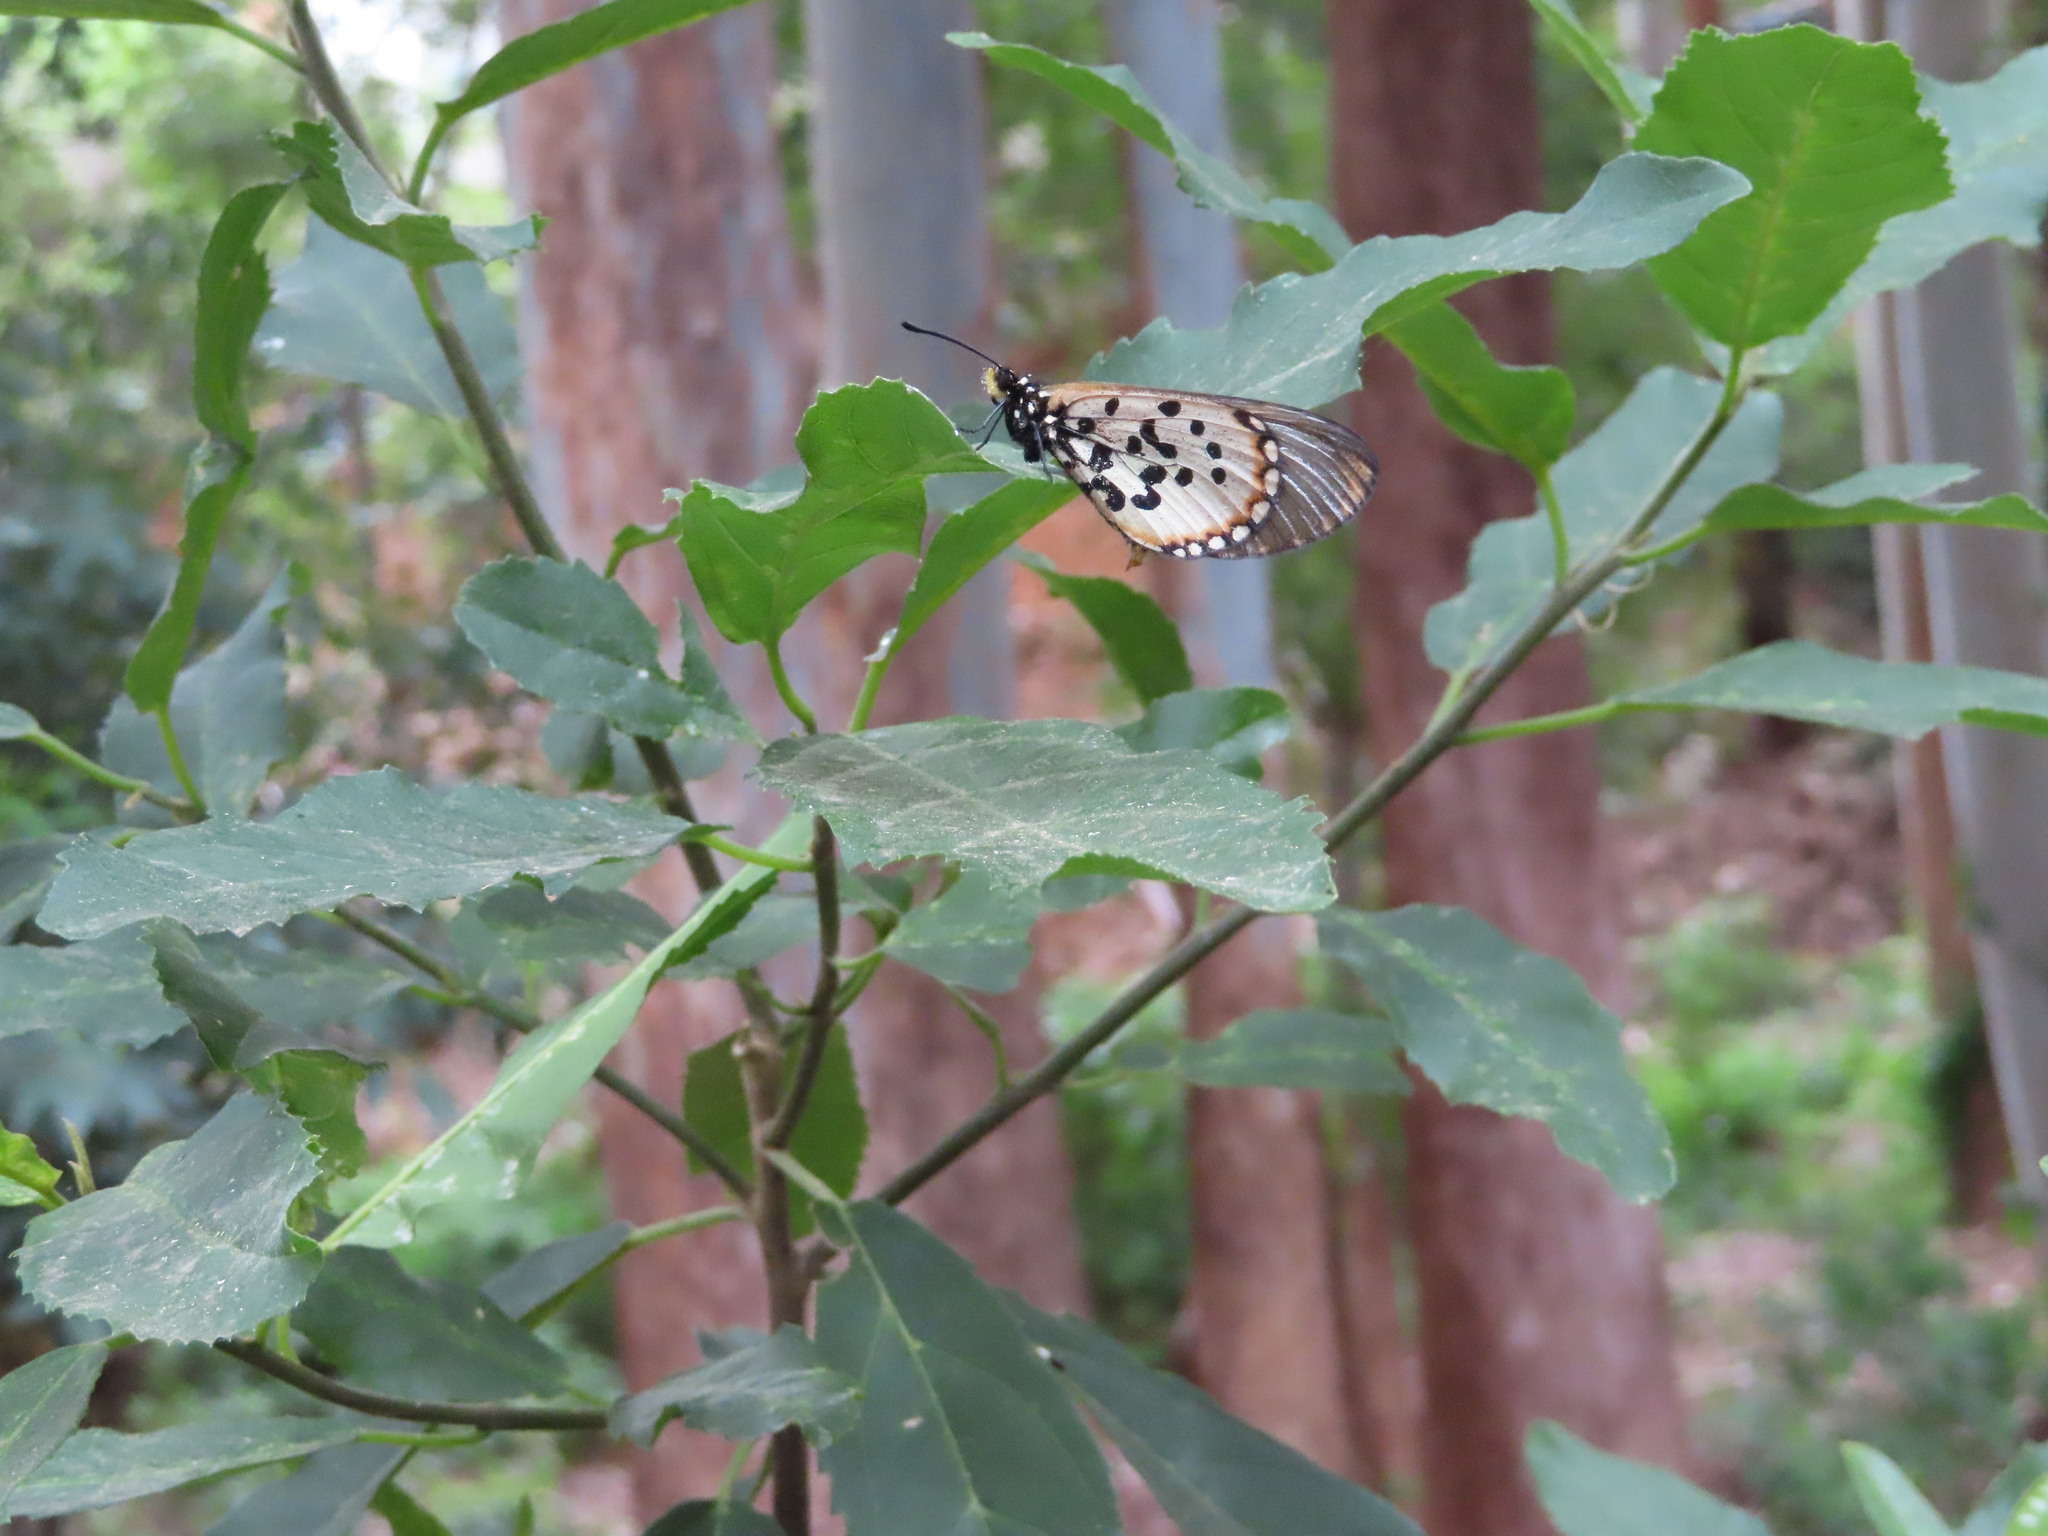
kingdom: Animalia
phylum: Arthropoda
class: Insecta
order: Lepidoptera
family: Nymphalidae
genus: Acraea
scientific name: Acraea horta
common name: Garden acraea
